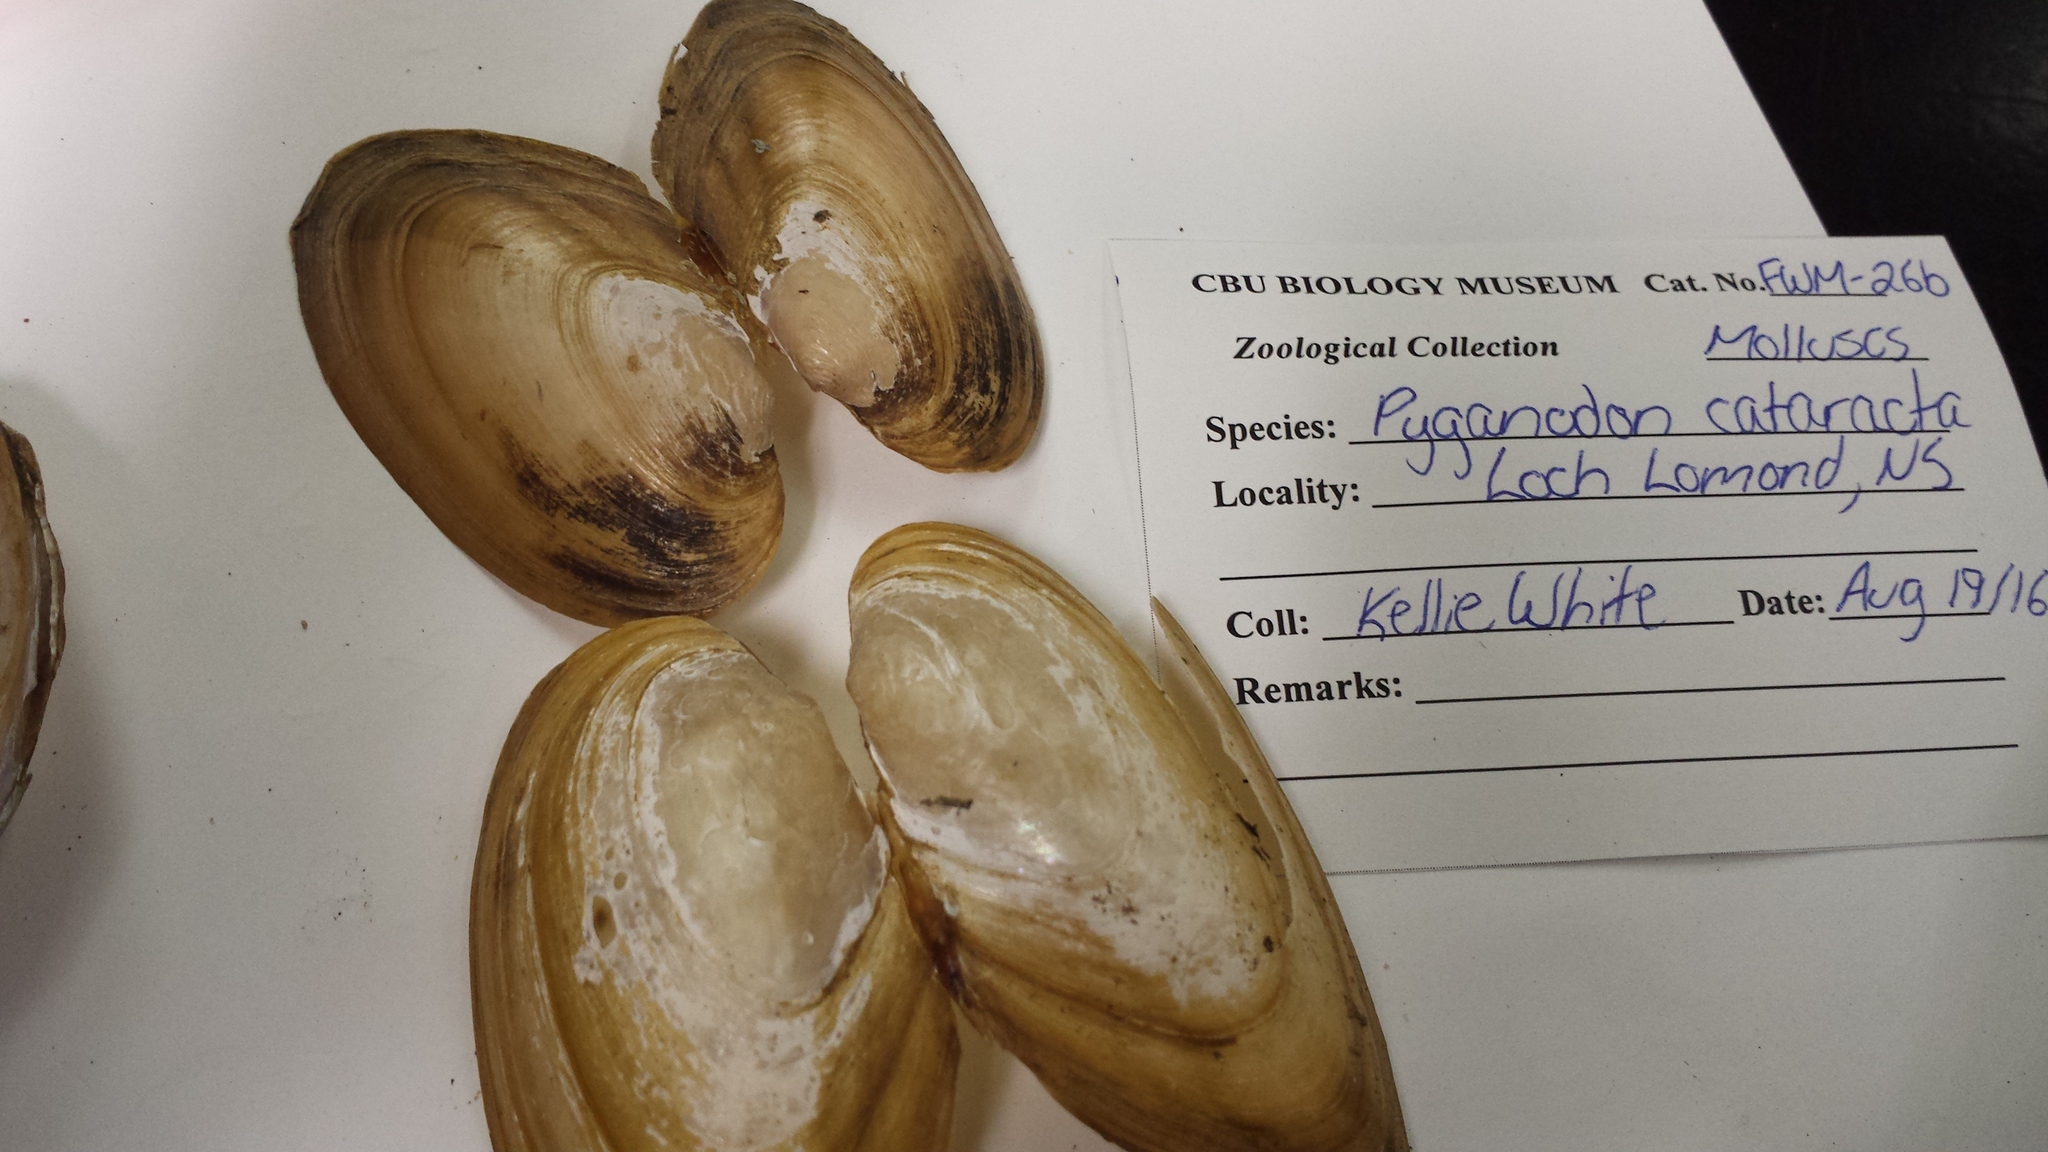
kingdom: Animalia
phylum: Mollusca
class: Bivalvia
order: Unionida
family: Unionidae
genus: Pyganodon
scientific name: Pyganodon cataracta
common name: Eastern floater
